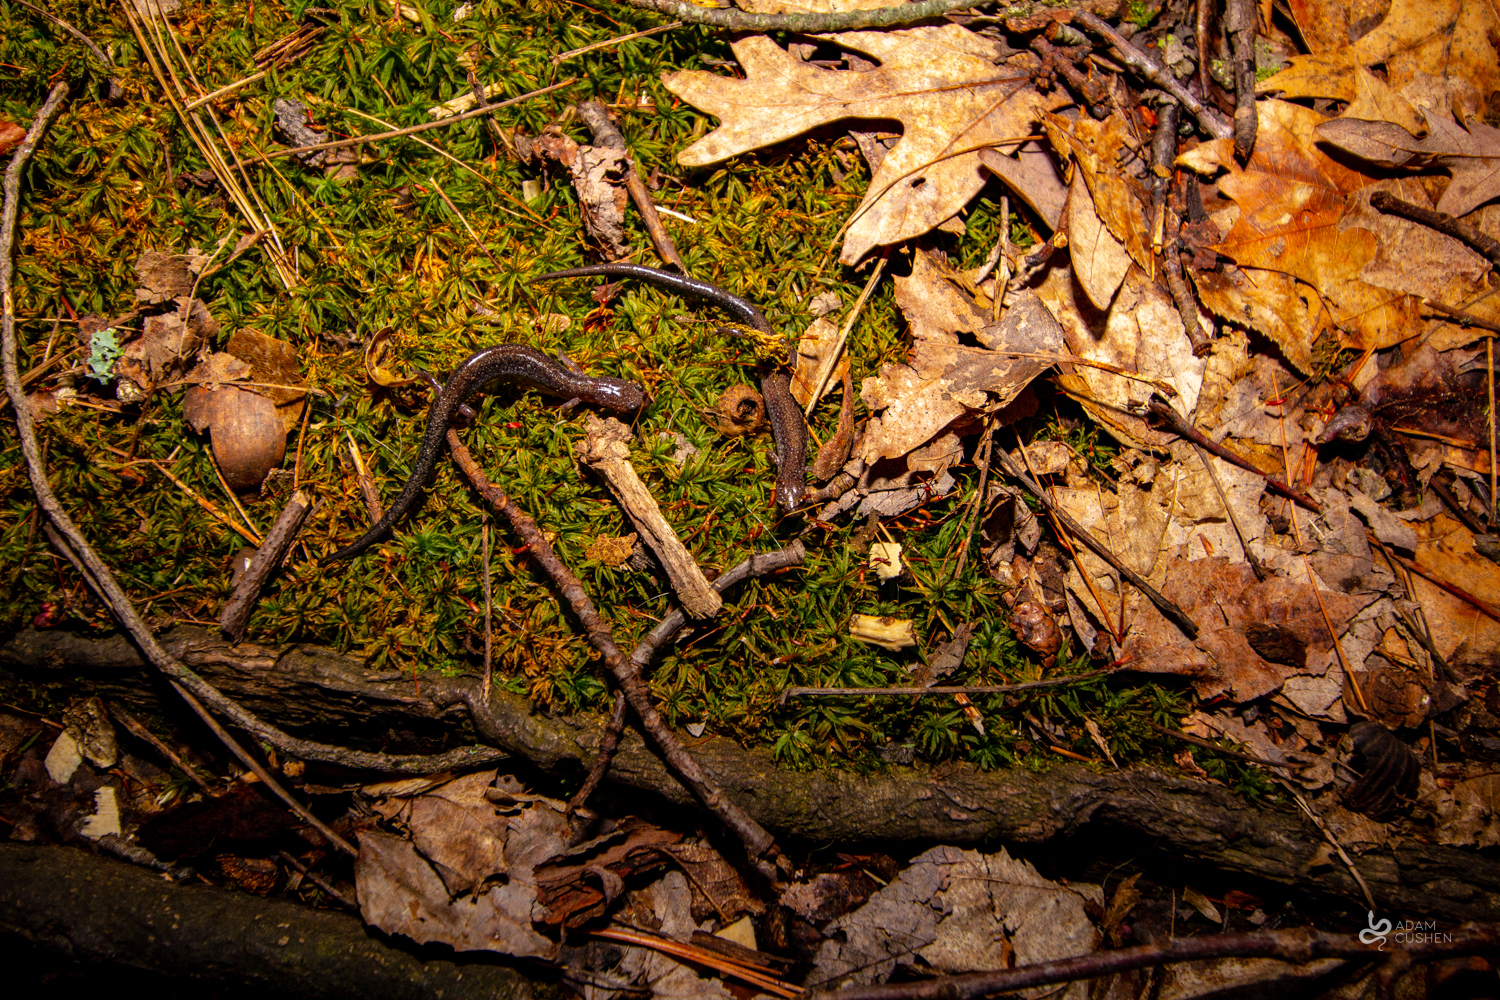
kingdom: Animalia
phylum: Chordata
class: Amphibia
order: Caudata
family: Plethodontidae
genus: Plethodon
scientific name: Plethodon cinereus
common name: Redback salamander
